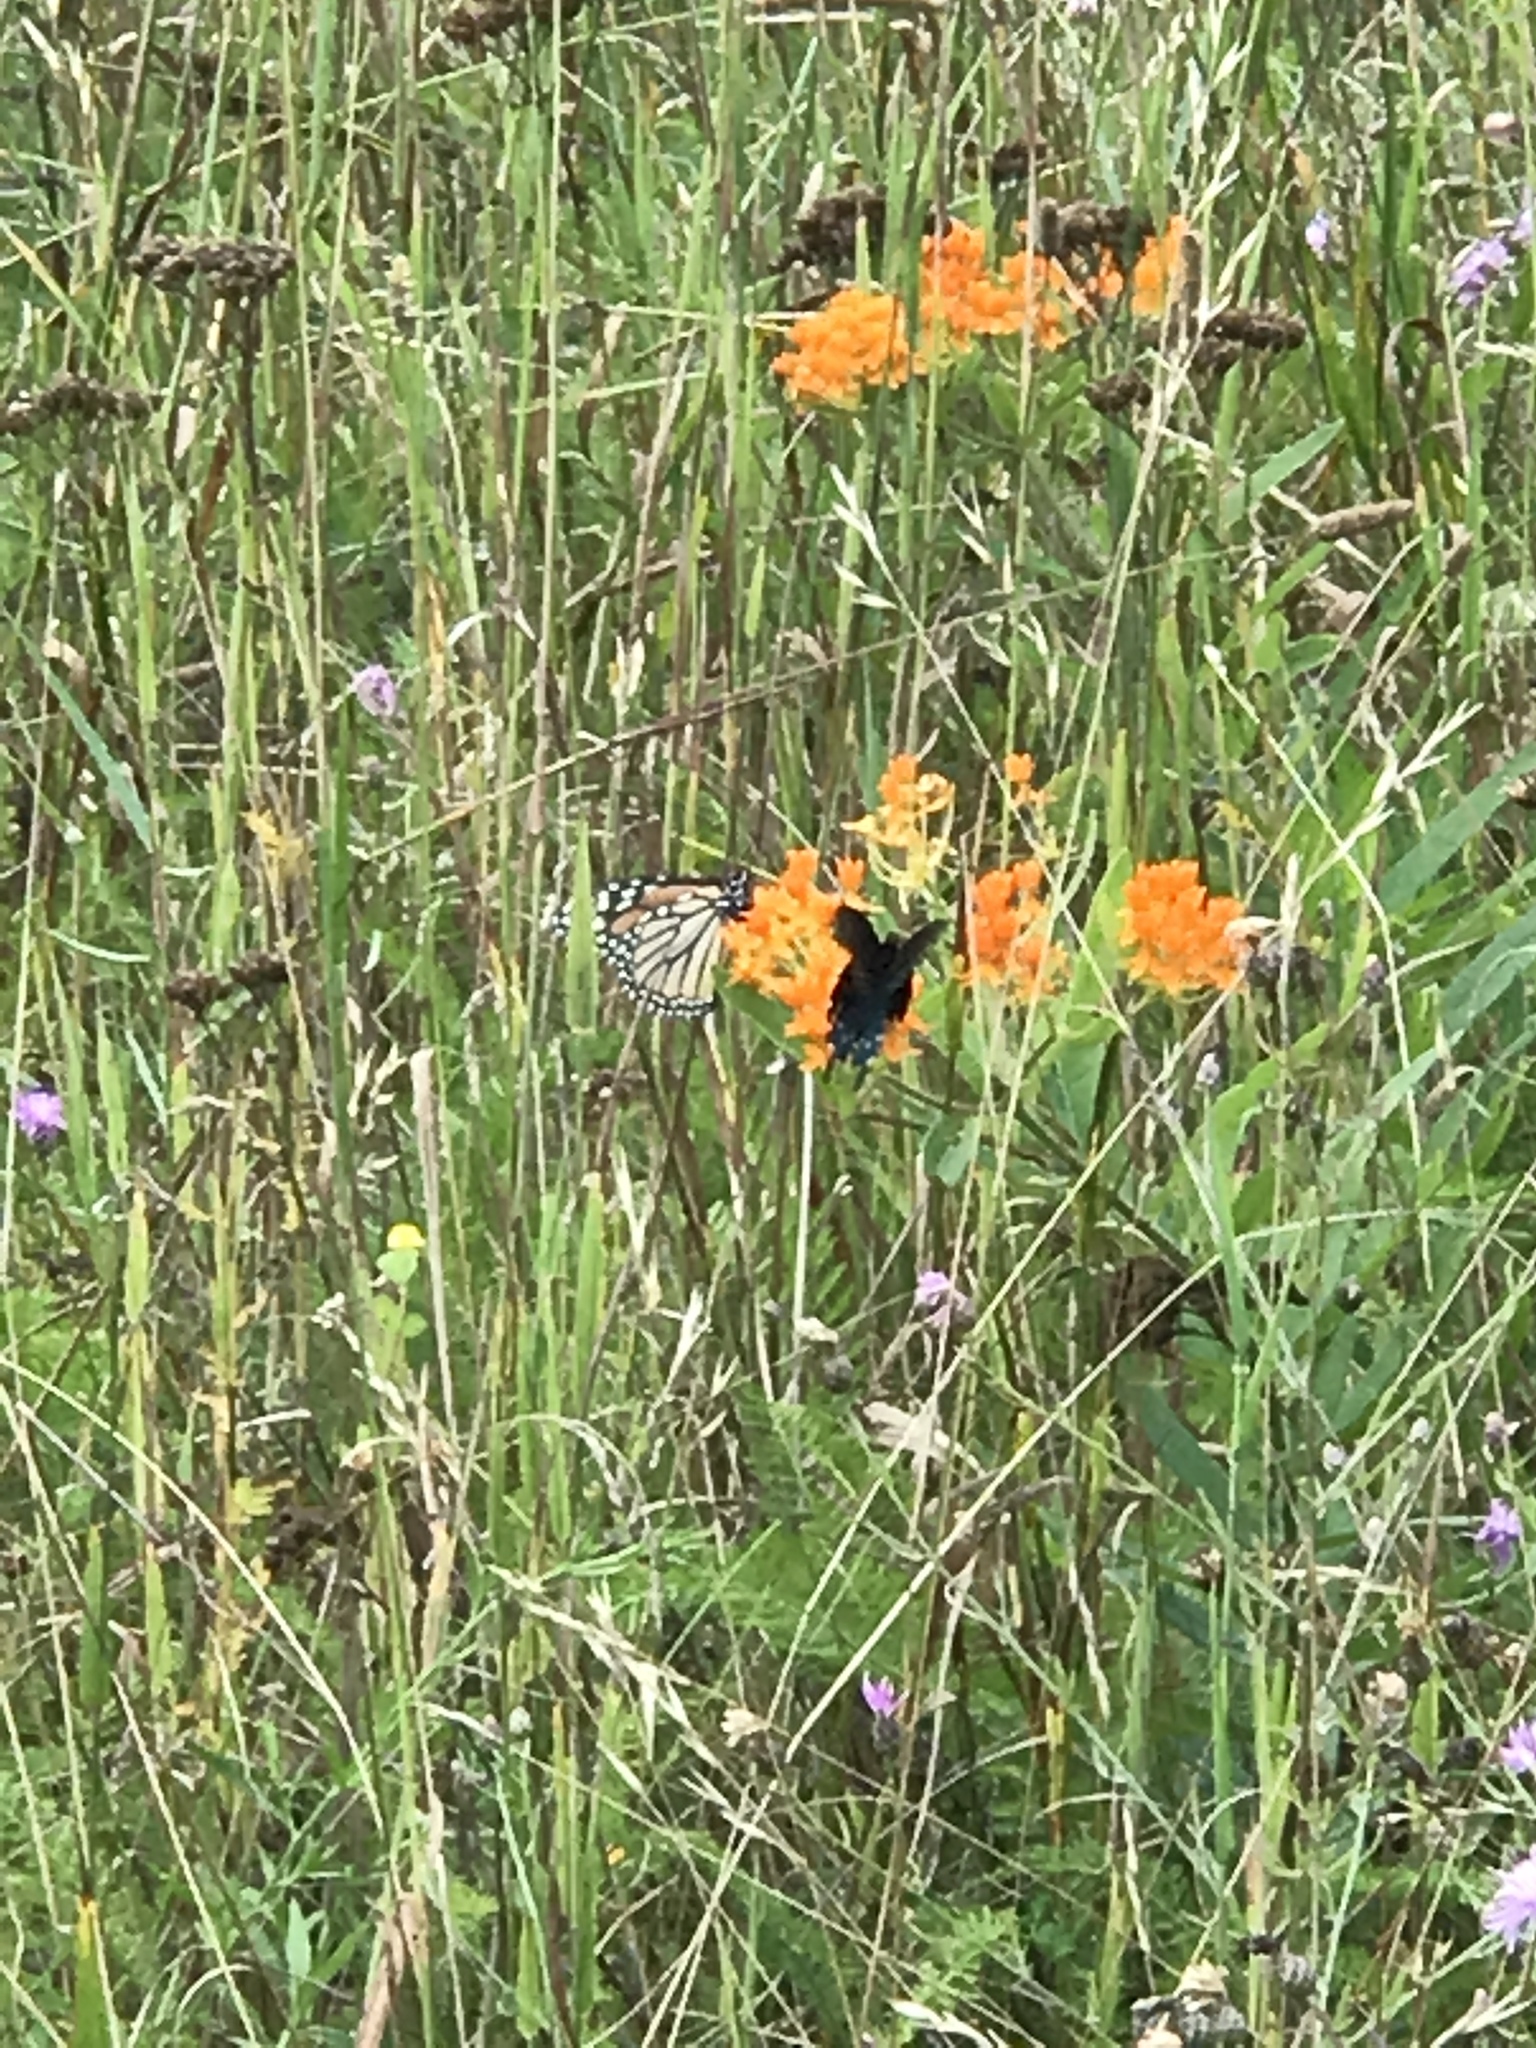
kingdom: Animalia
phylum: Arthropoda
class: Insecta
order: Lepidoptera
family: Nymphalidae
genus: Danaus
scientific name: Danaus plexippus
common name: Monarch
